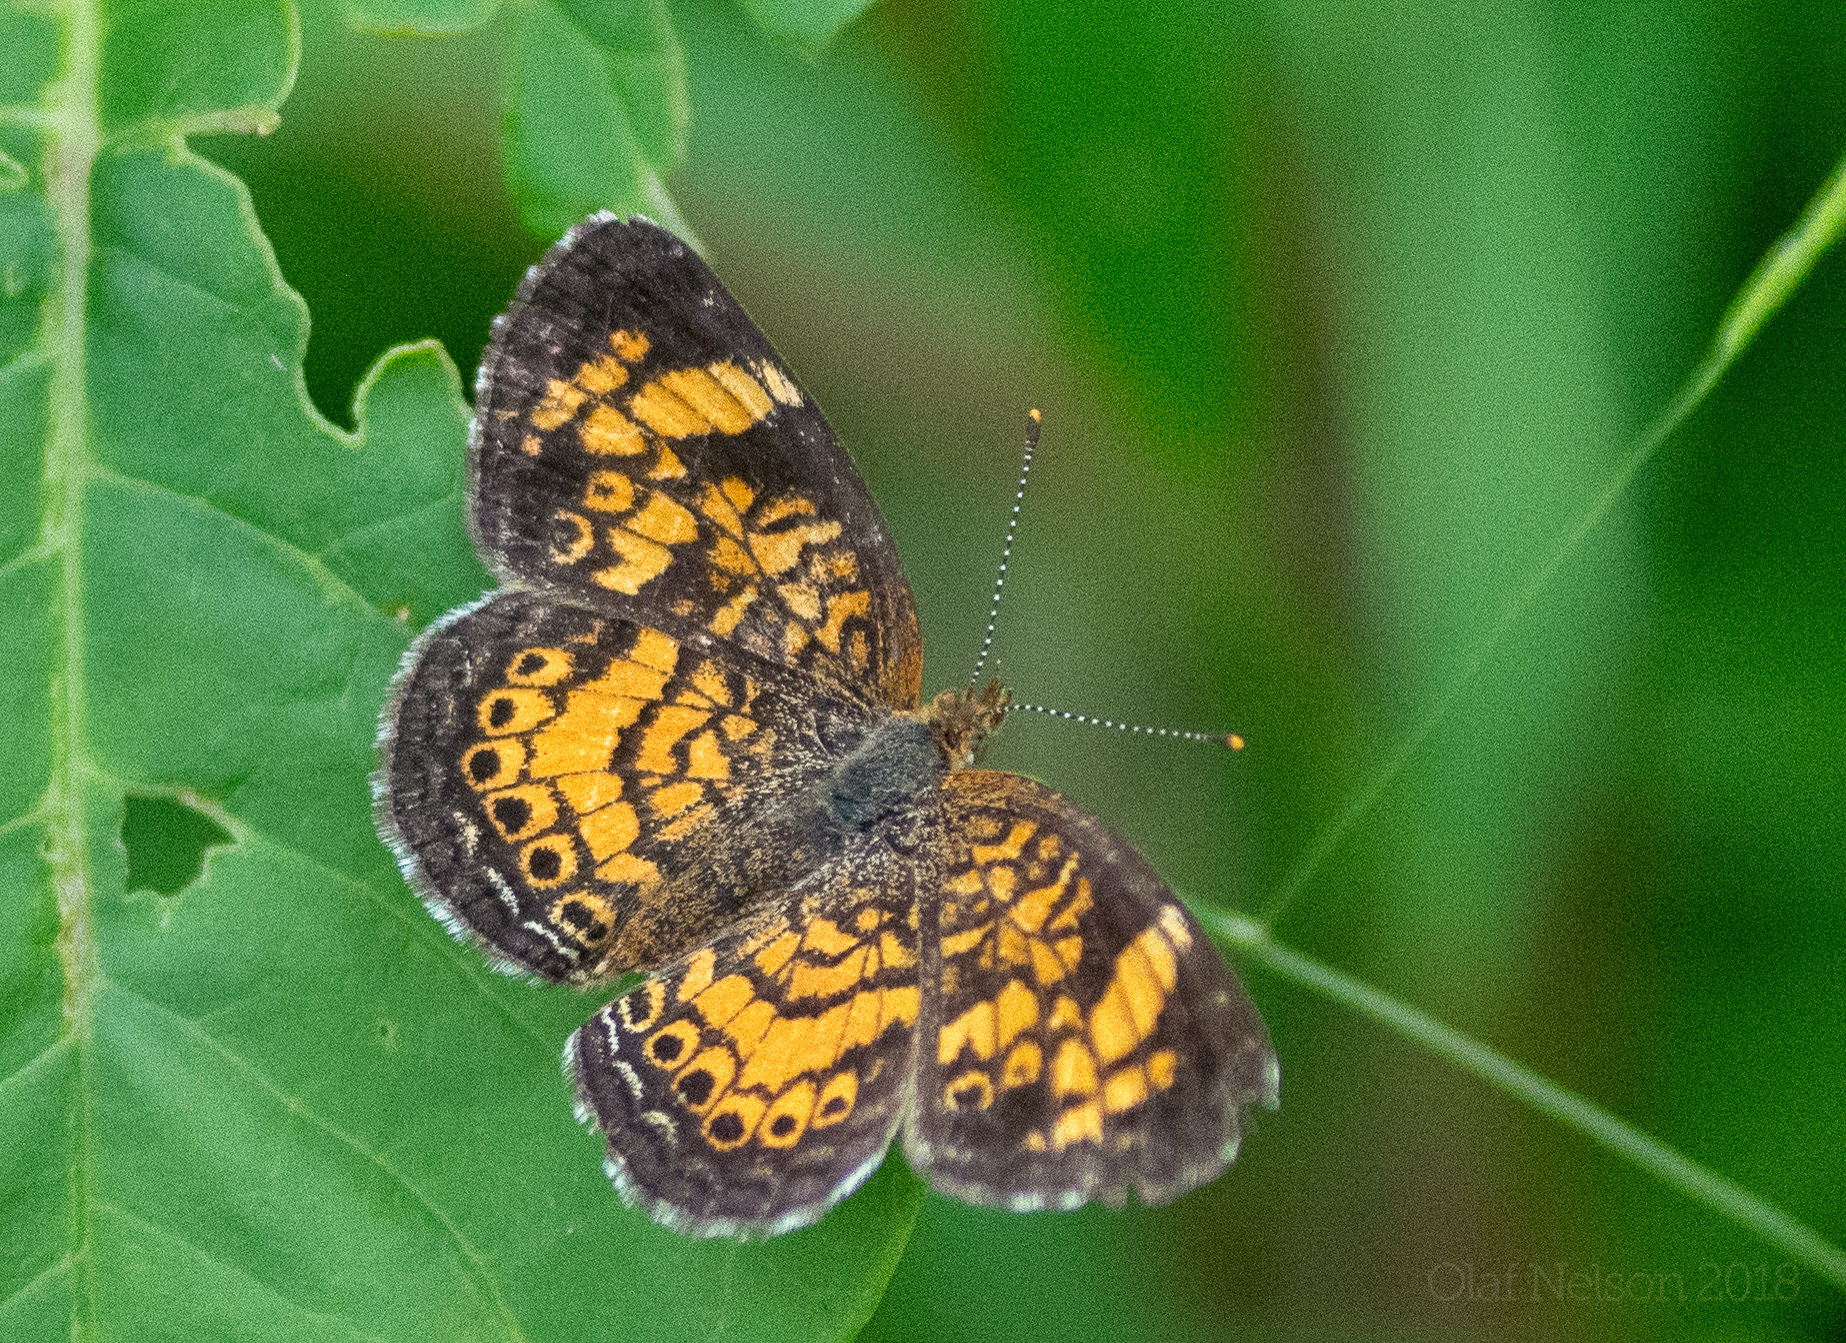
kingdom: Animalia
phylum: Arthropoda
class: Insecta
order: Lepidoptera
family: Nymphalidae
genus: Phyciodes
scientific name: Phyciodes tharos
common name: Pearl crescent
